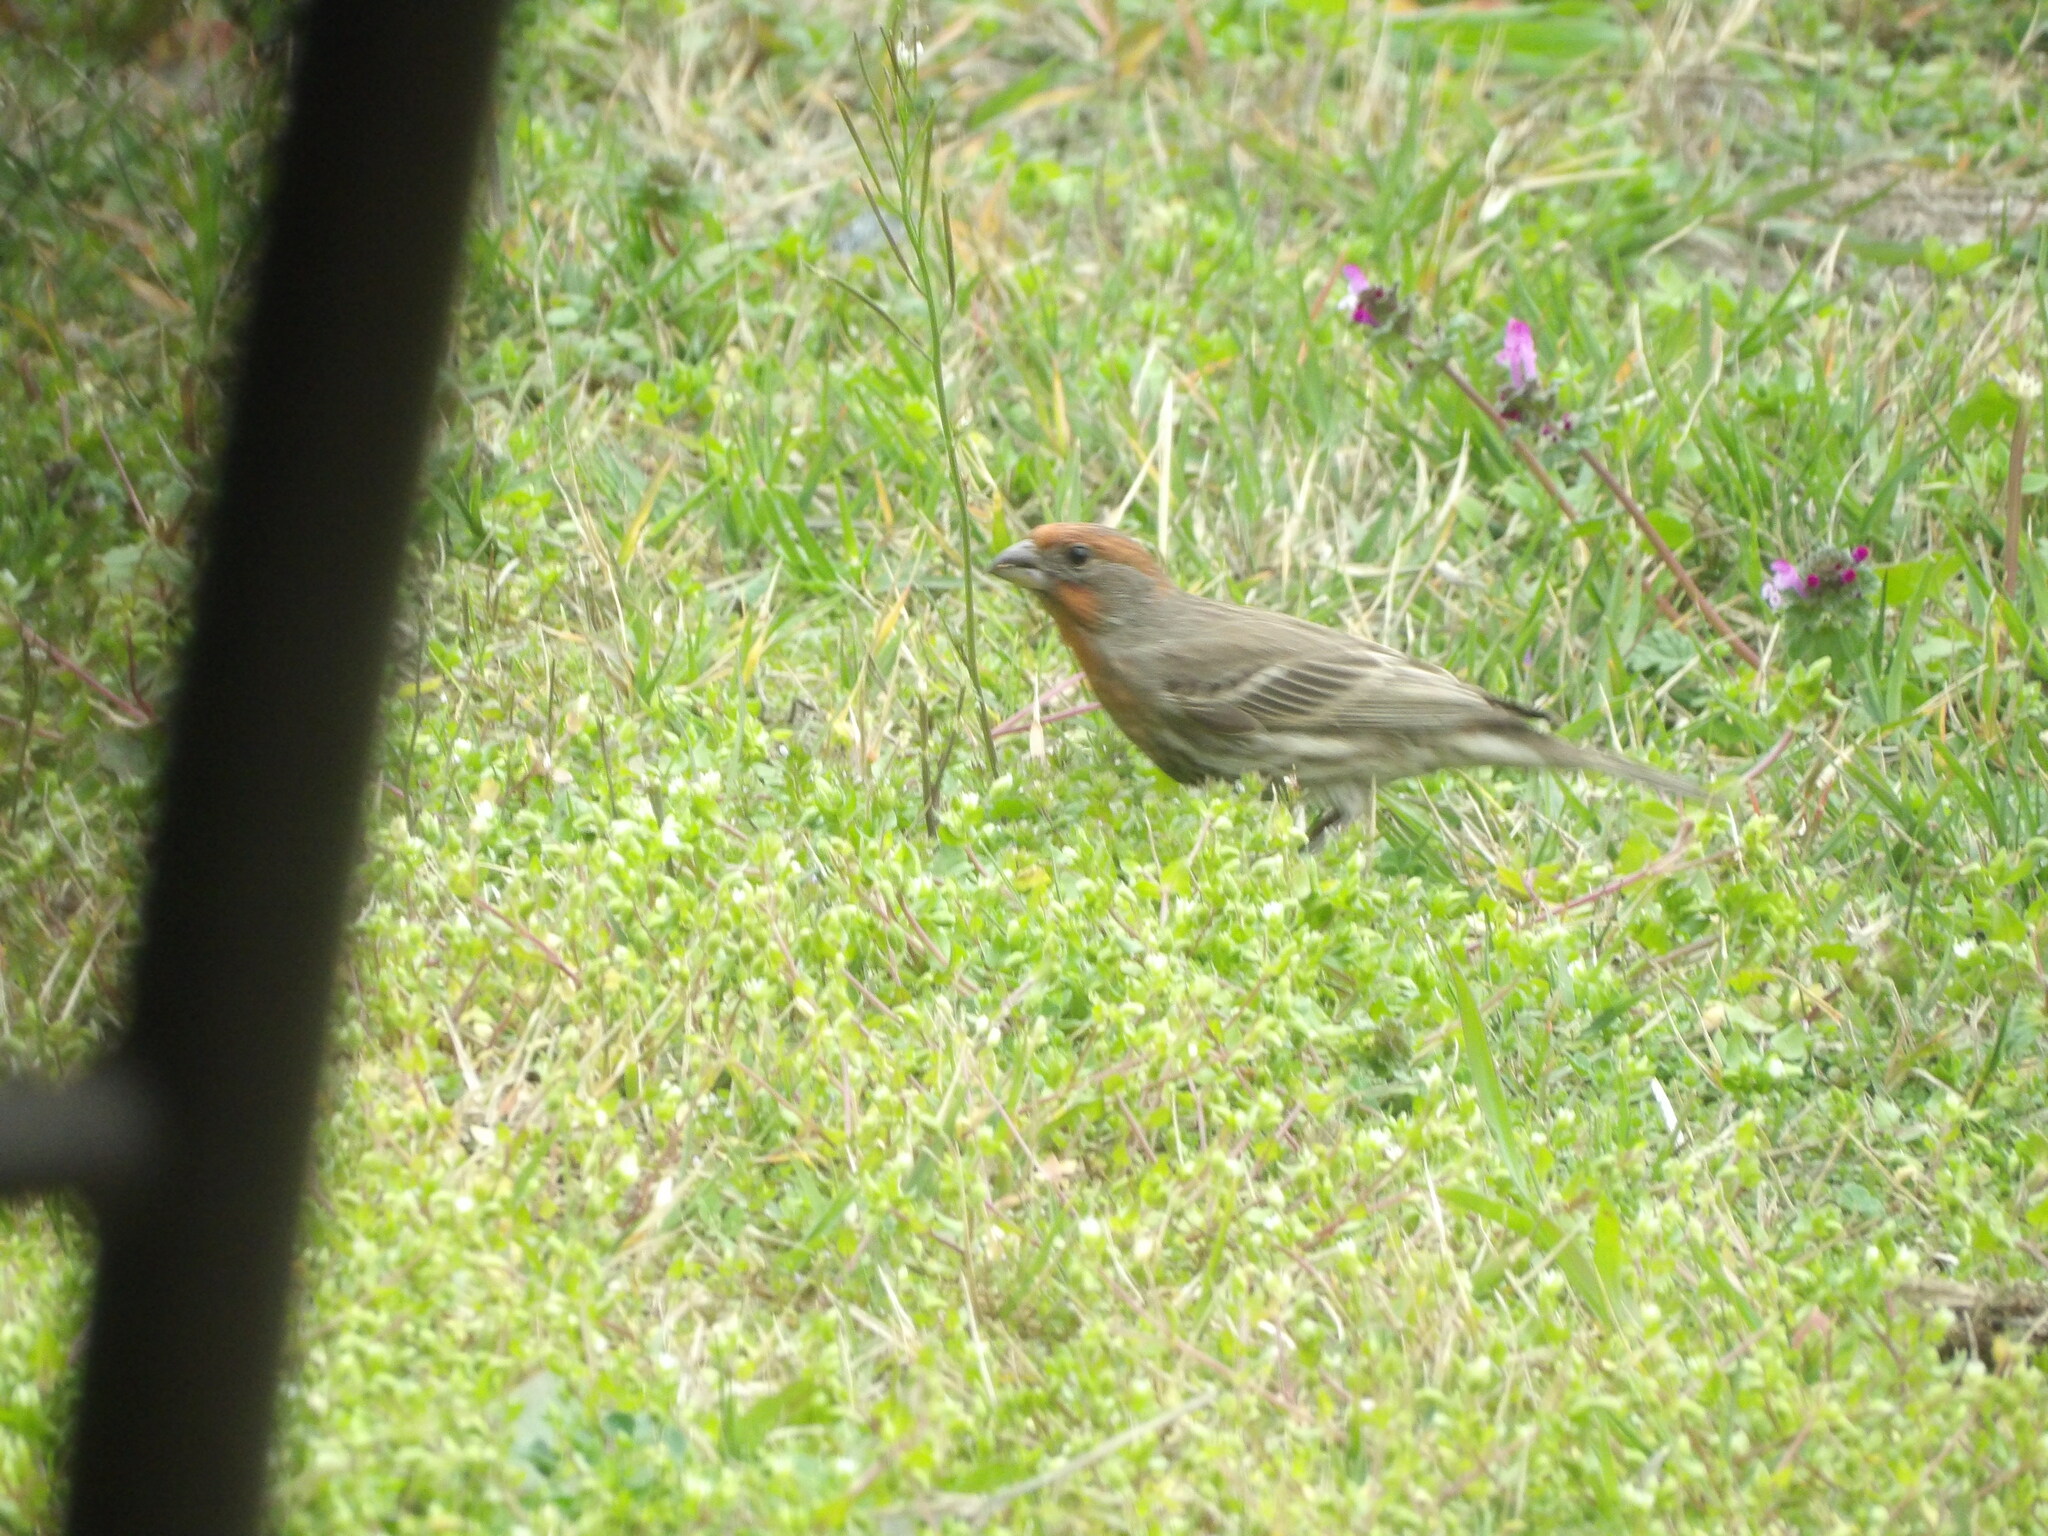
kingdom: Animalia
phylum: Chordata
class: Aves
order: Passeriformes
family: Fringillidae
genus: Haemorhous
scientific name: Haemorhous mexicanus
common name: House finch
